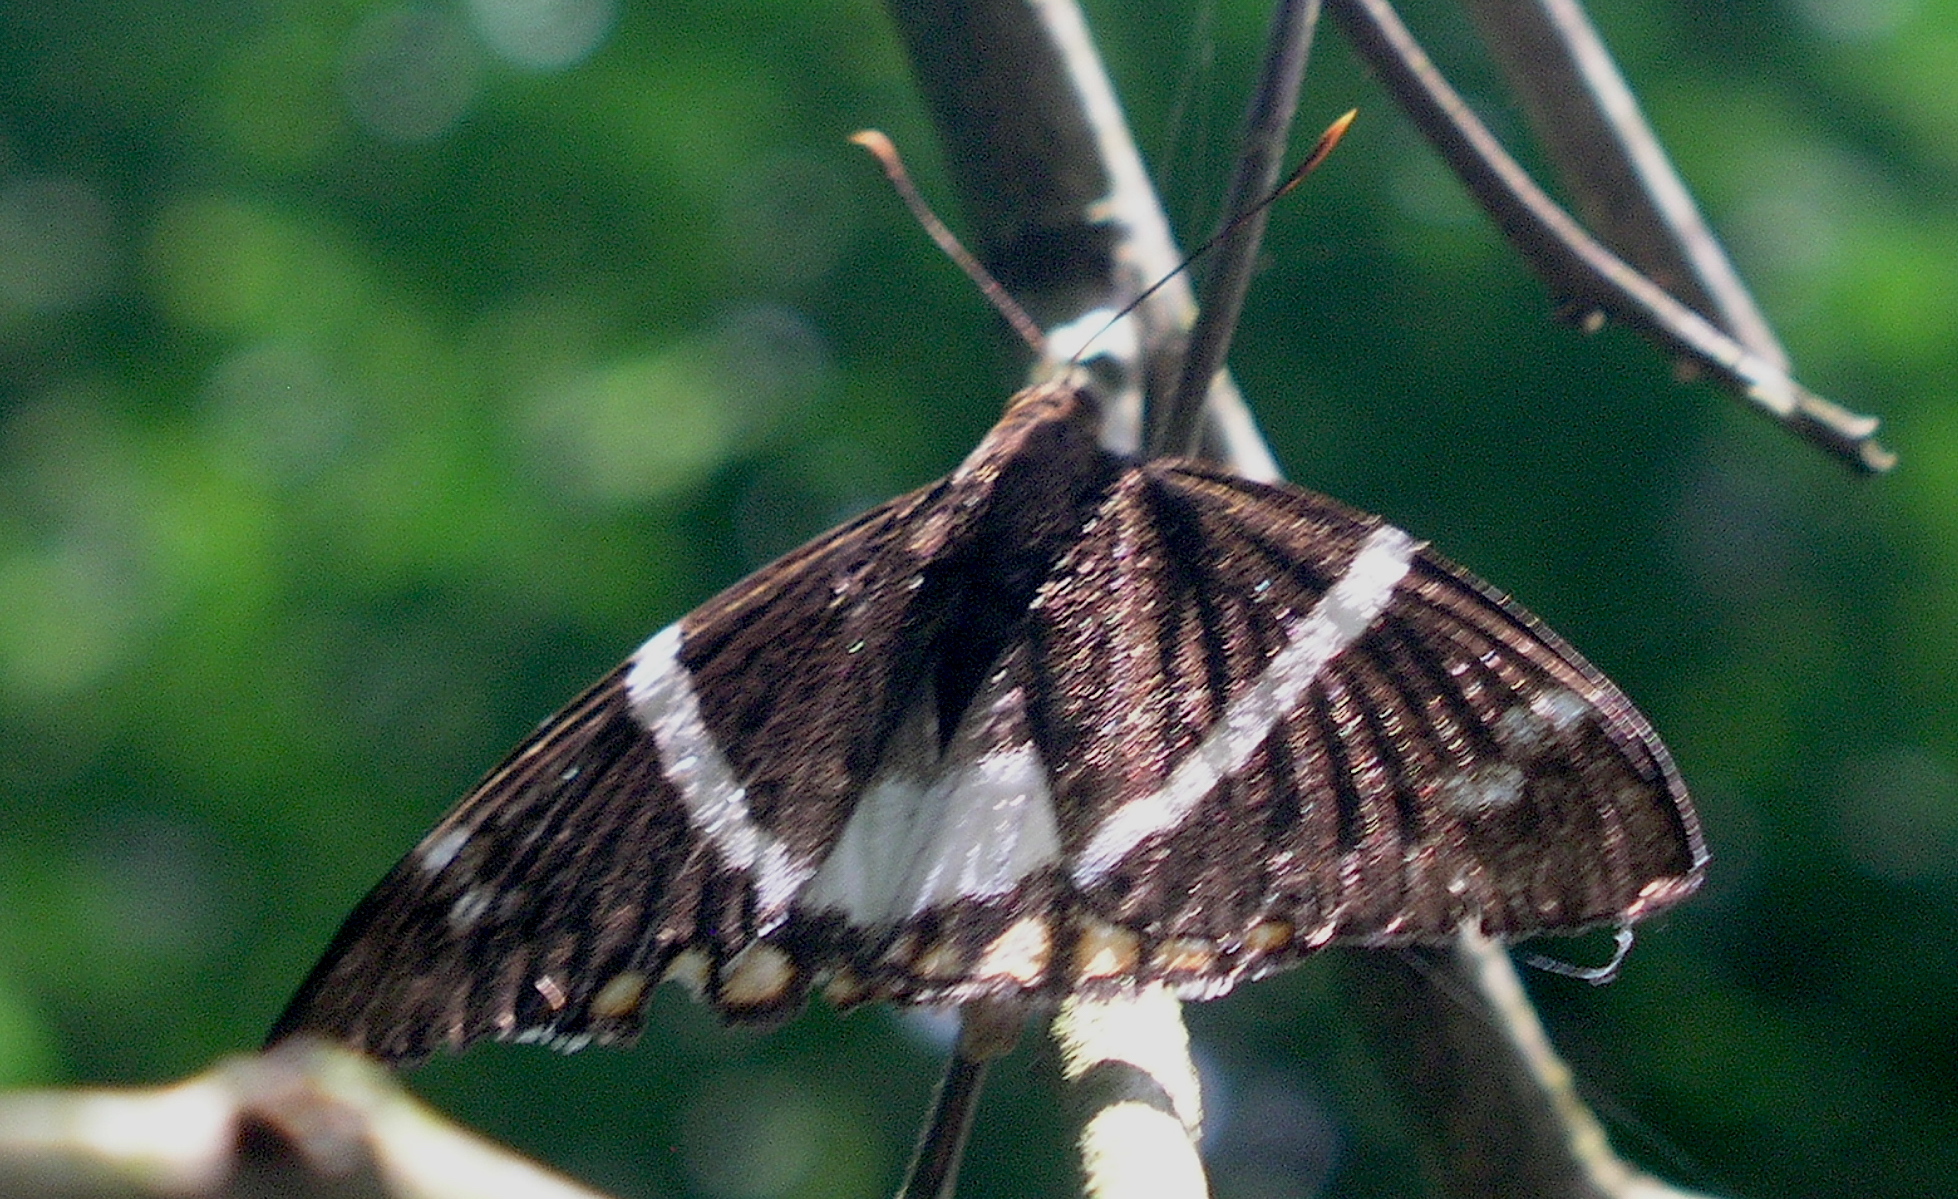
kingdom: Animalia
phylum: Arthropoda
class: Insecta
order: Lepidoptera
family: Castniidae
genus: Castnia
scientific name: Castnia licus
